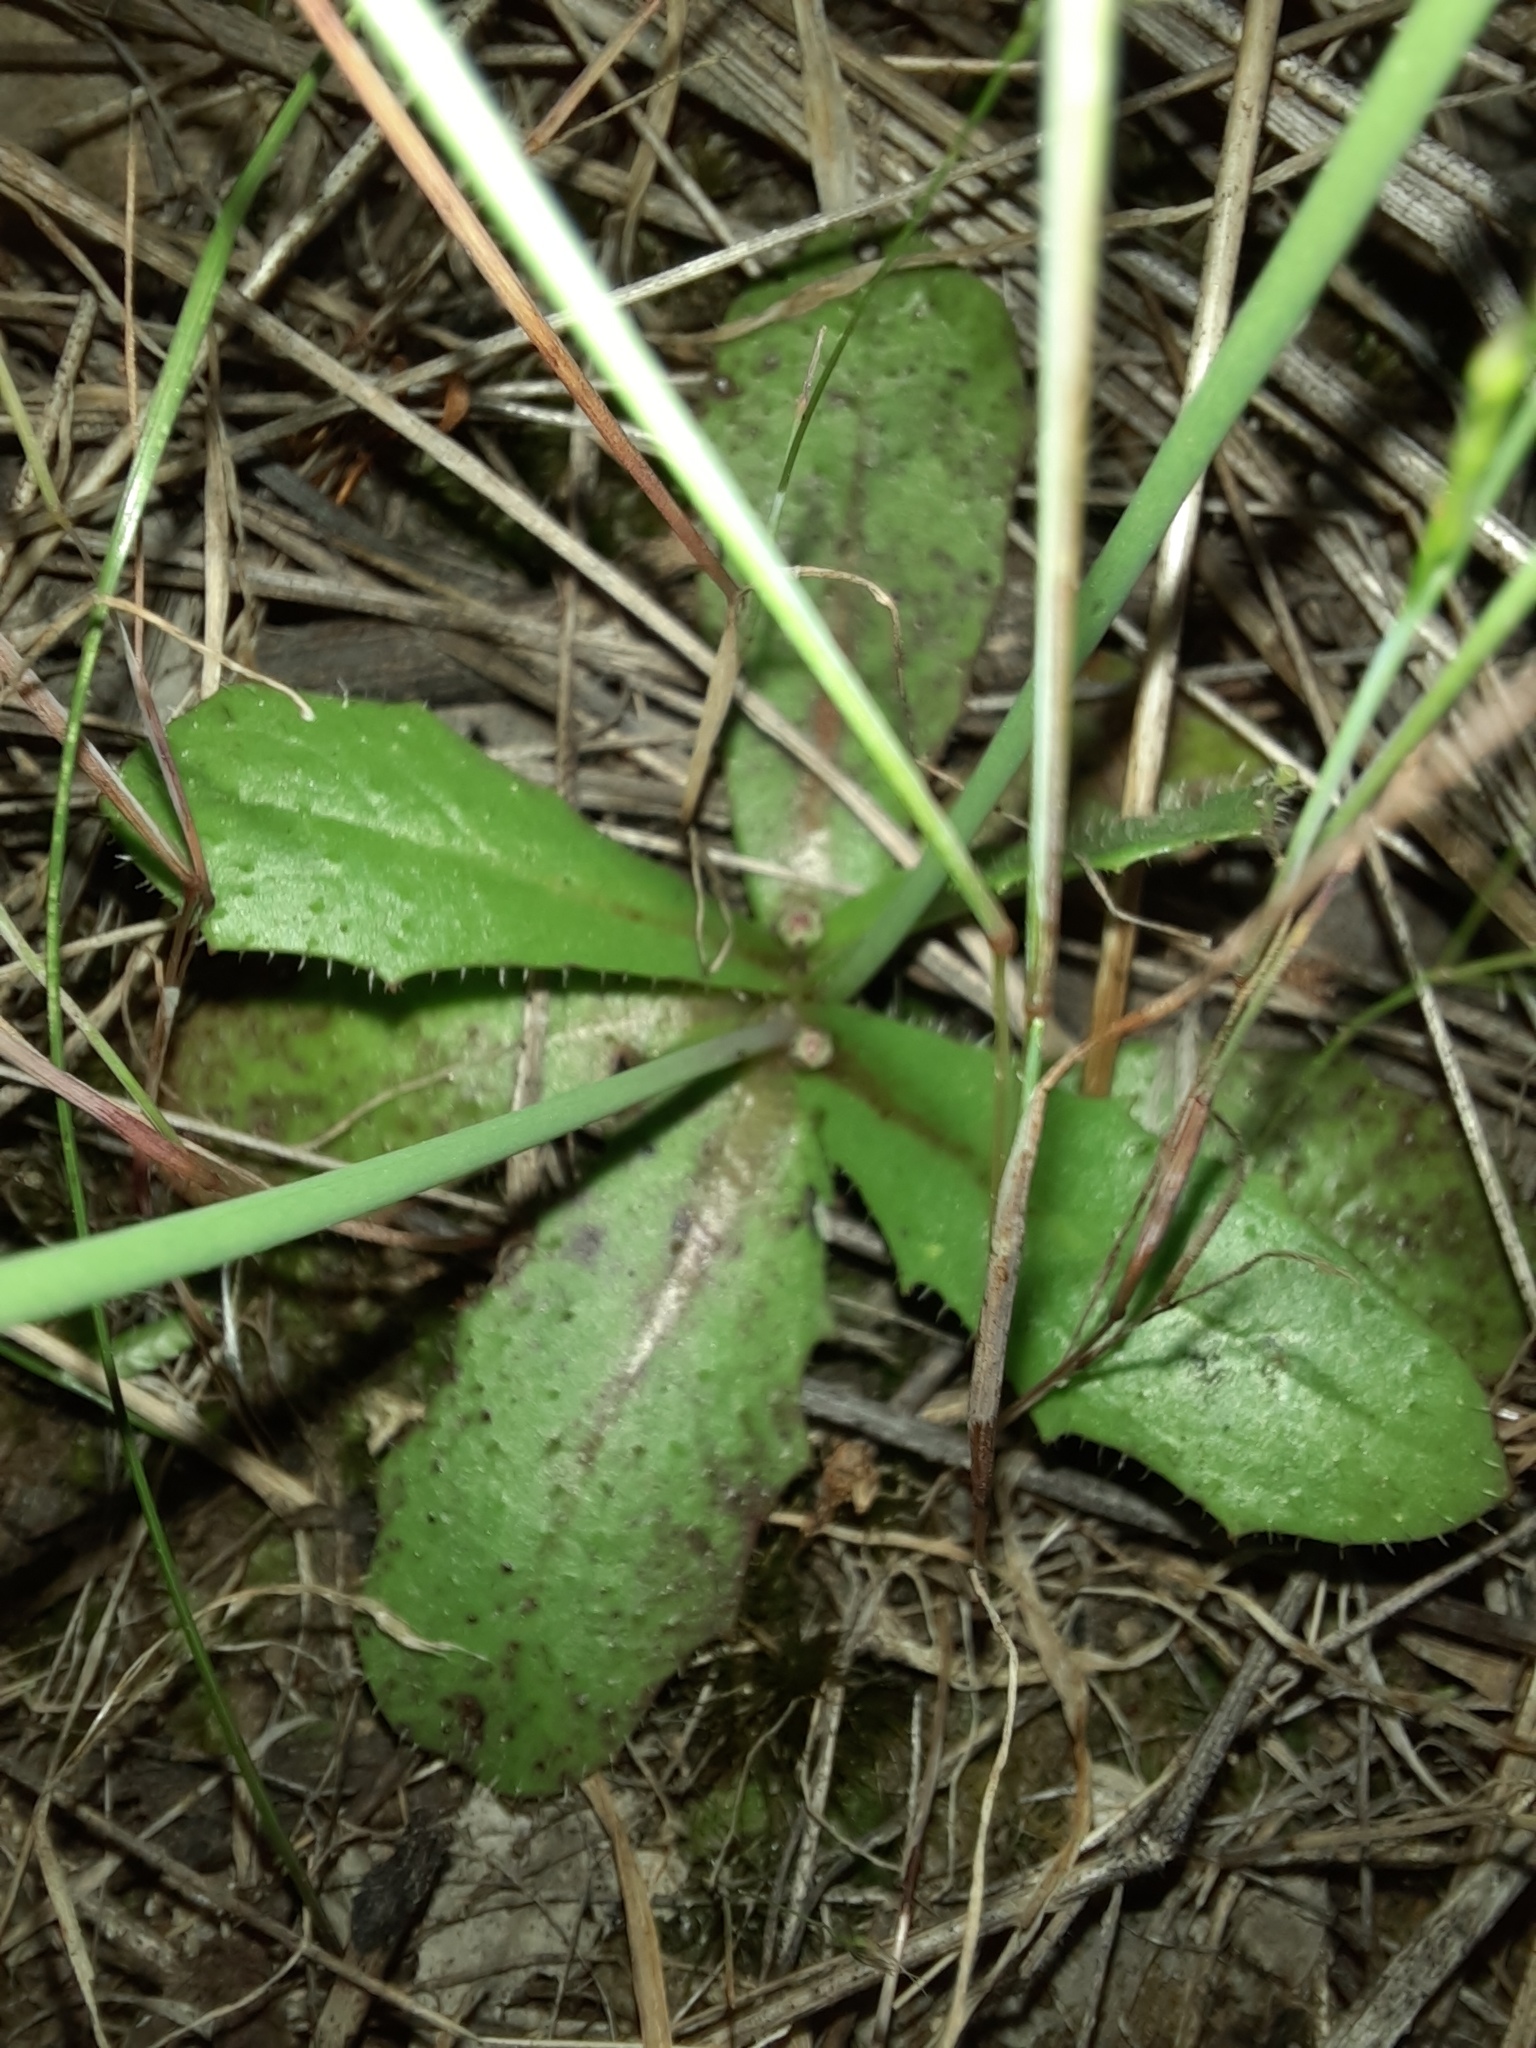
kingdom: Plantae
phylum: Tracheophyta
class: Magnoliopsida
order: Asterales
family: Asteraceae
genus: Hypochaeris
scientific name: Hypochaeris glabra
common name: Smooth catsear
